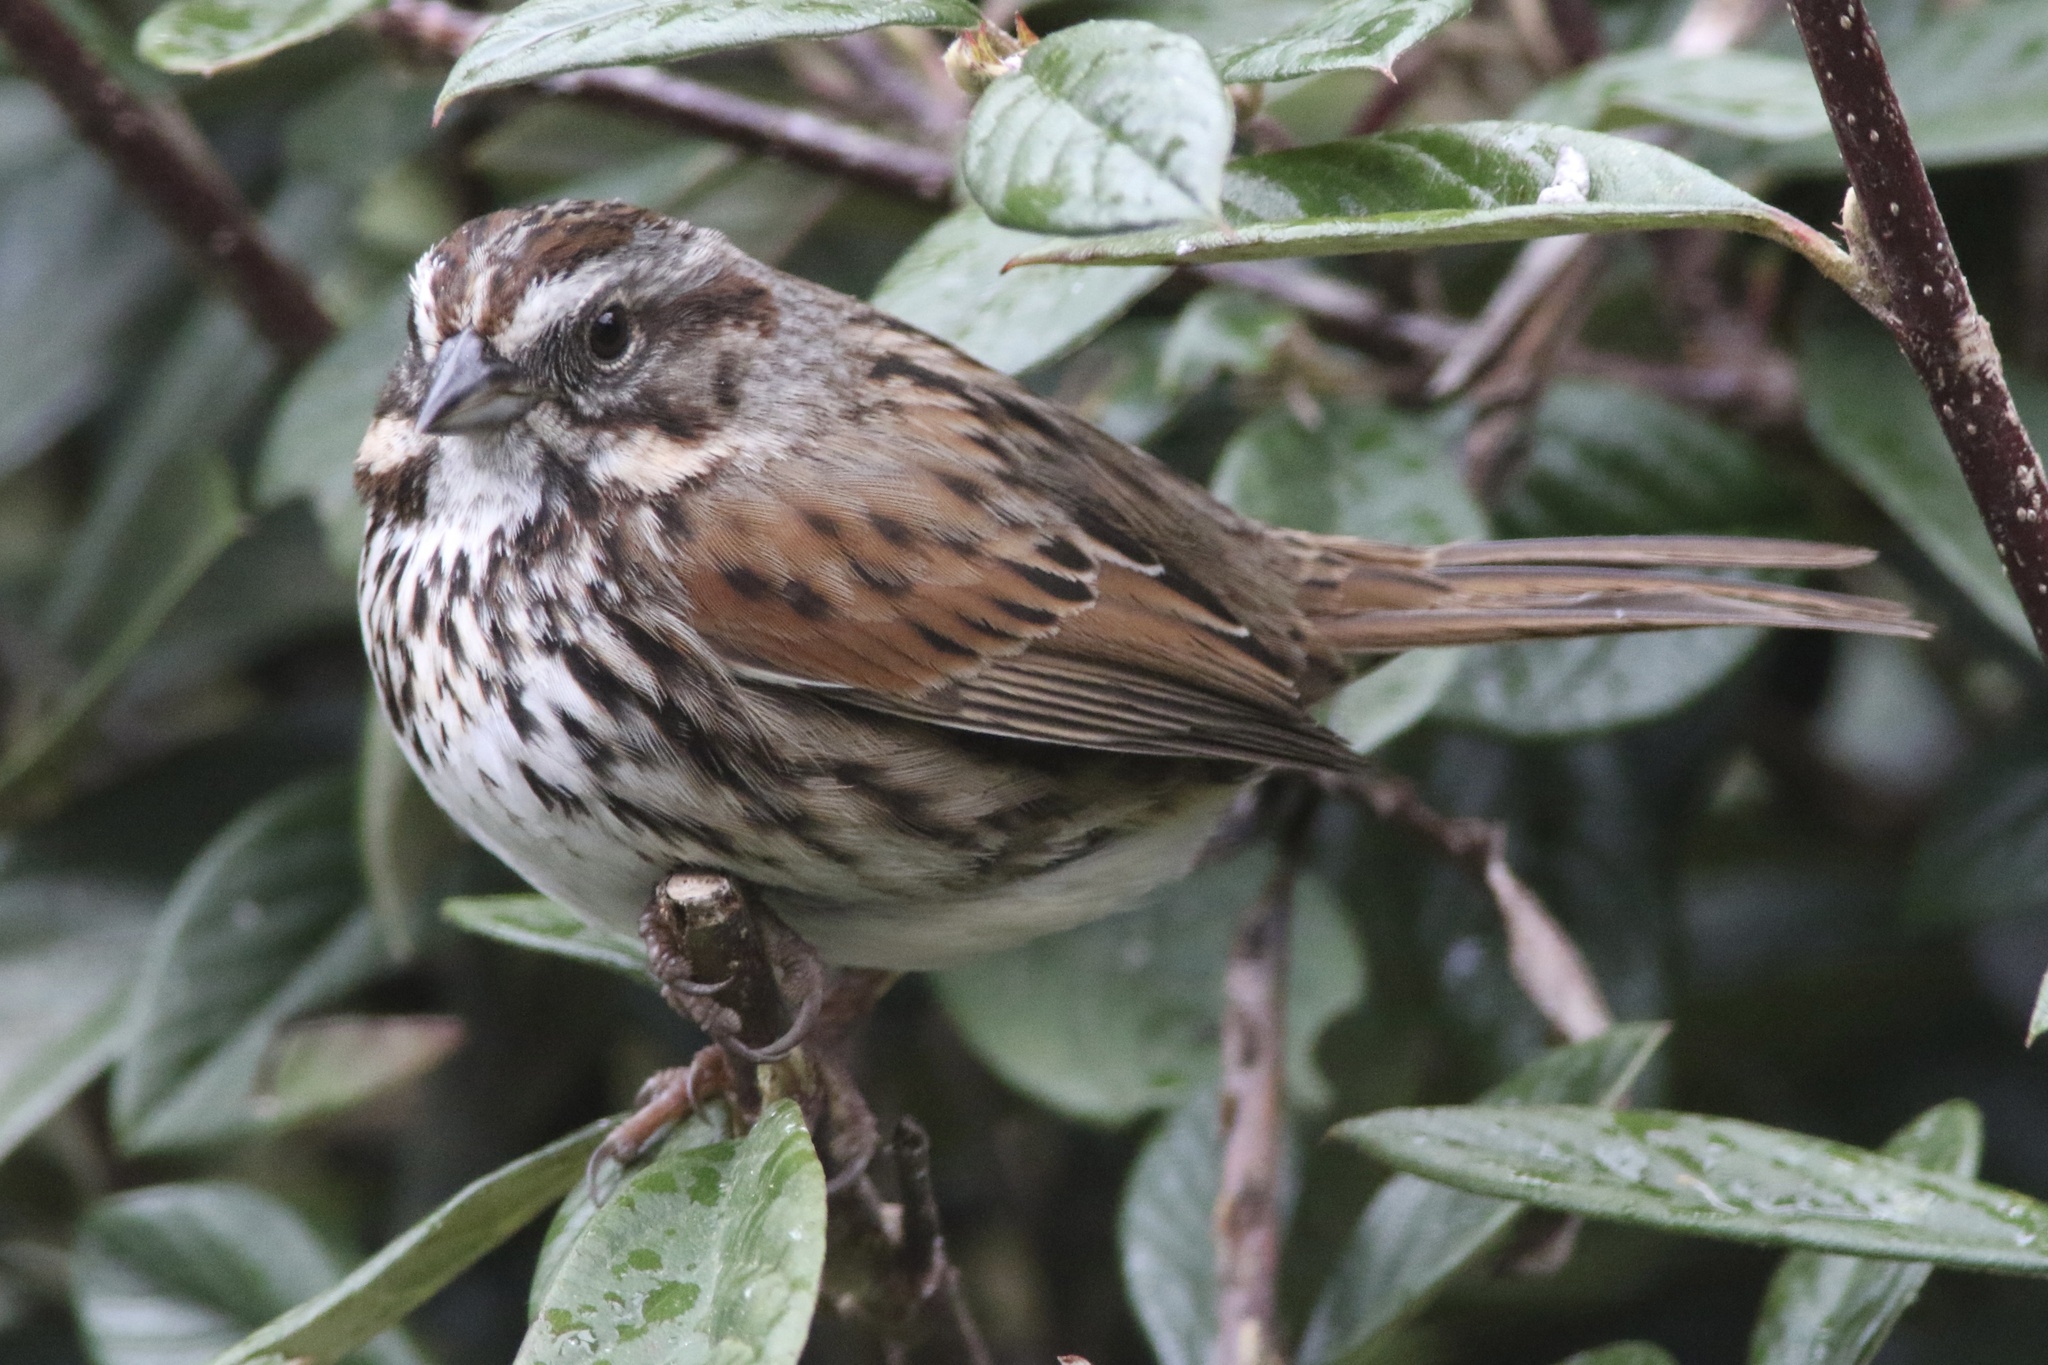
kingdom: Animalia
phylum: Chordata
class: Aves
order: Passeriformes
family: Passerellidae
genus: Melospiza
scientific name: Melospiza melodia
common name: Song sparrow
